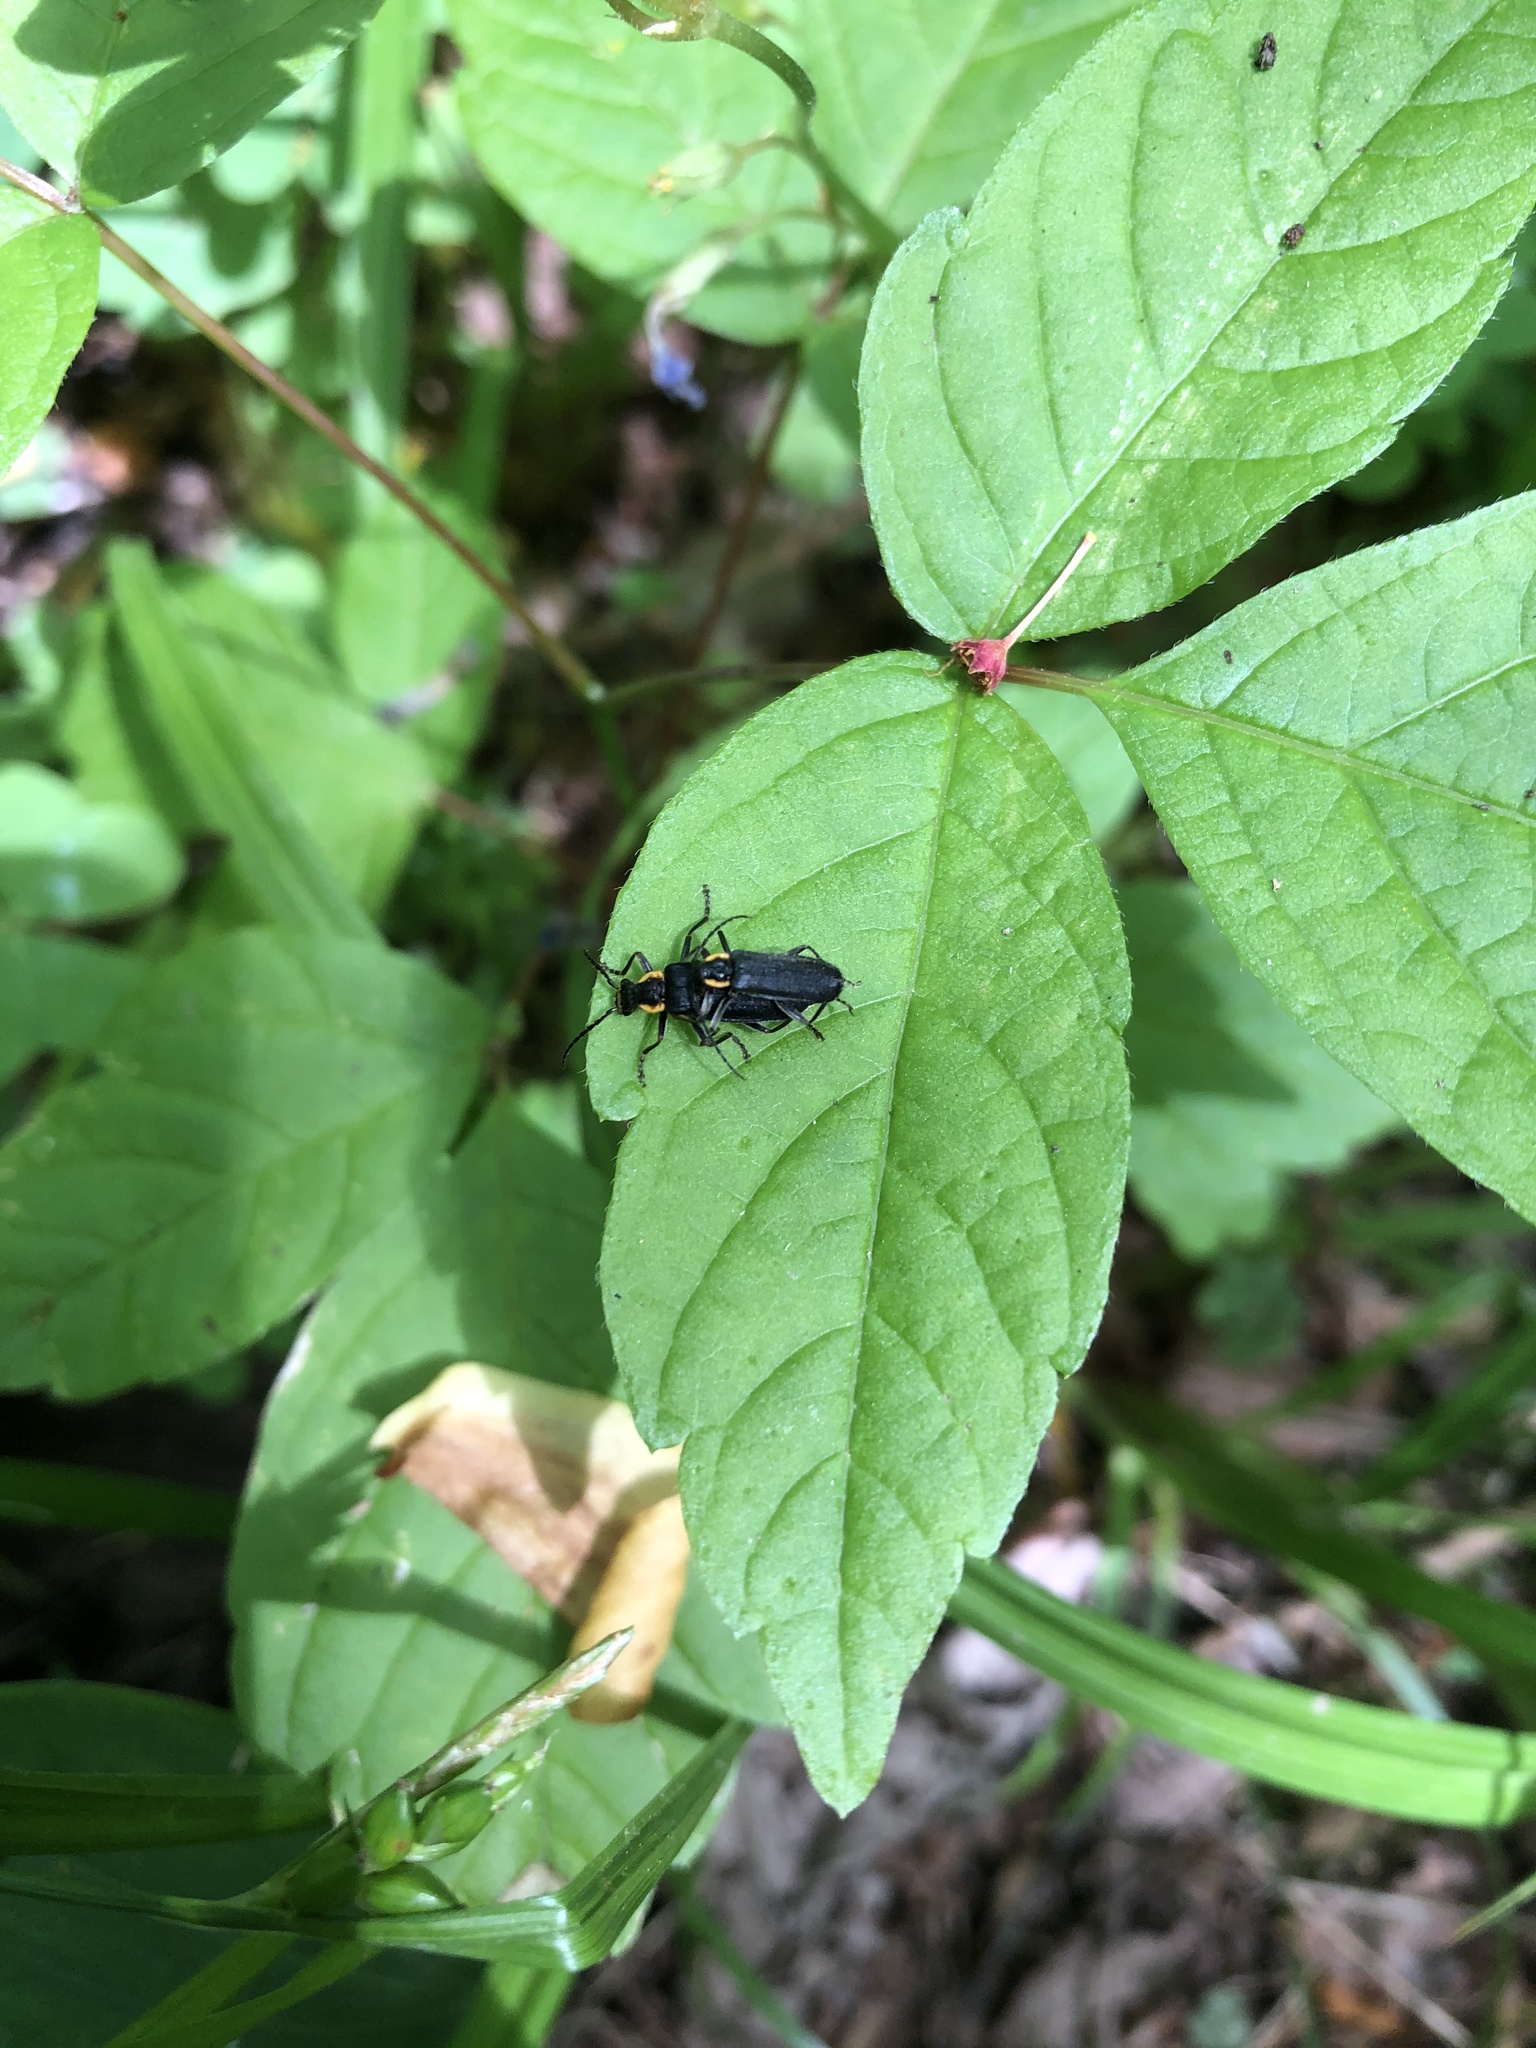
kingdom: Animalia
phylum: Arthropoda
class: Insecta
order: Coleoptera
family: Cantharidae
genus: Podabrus
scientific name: Podabrus frater
